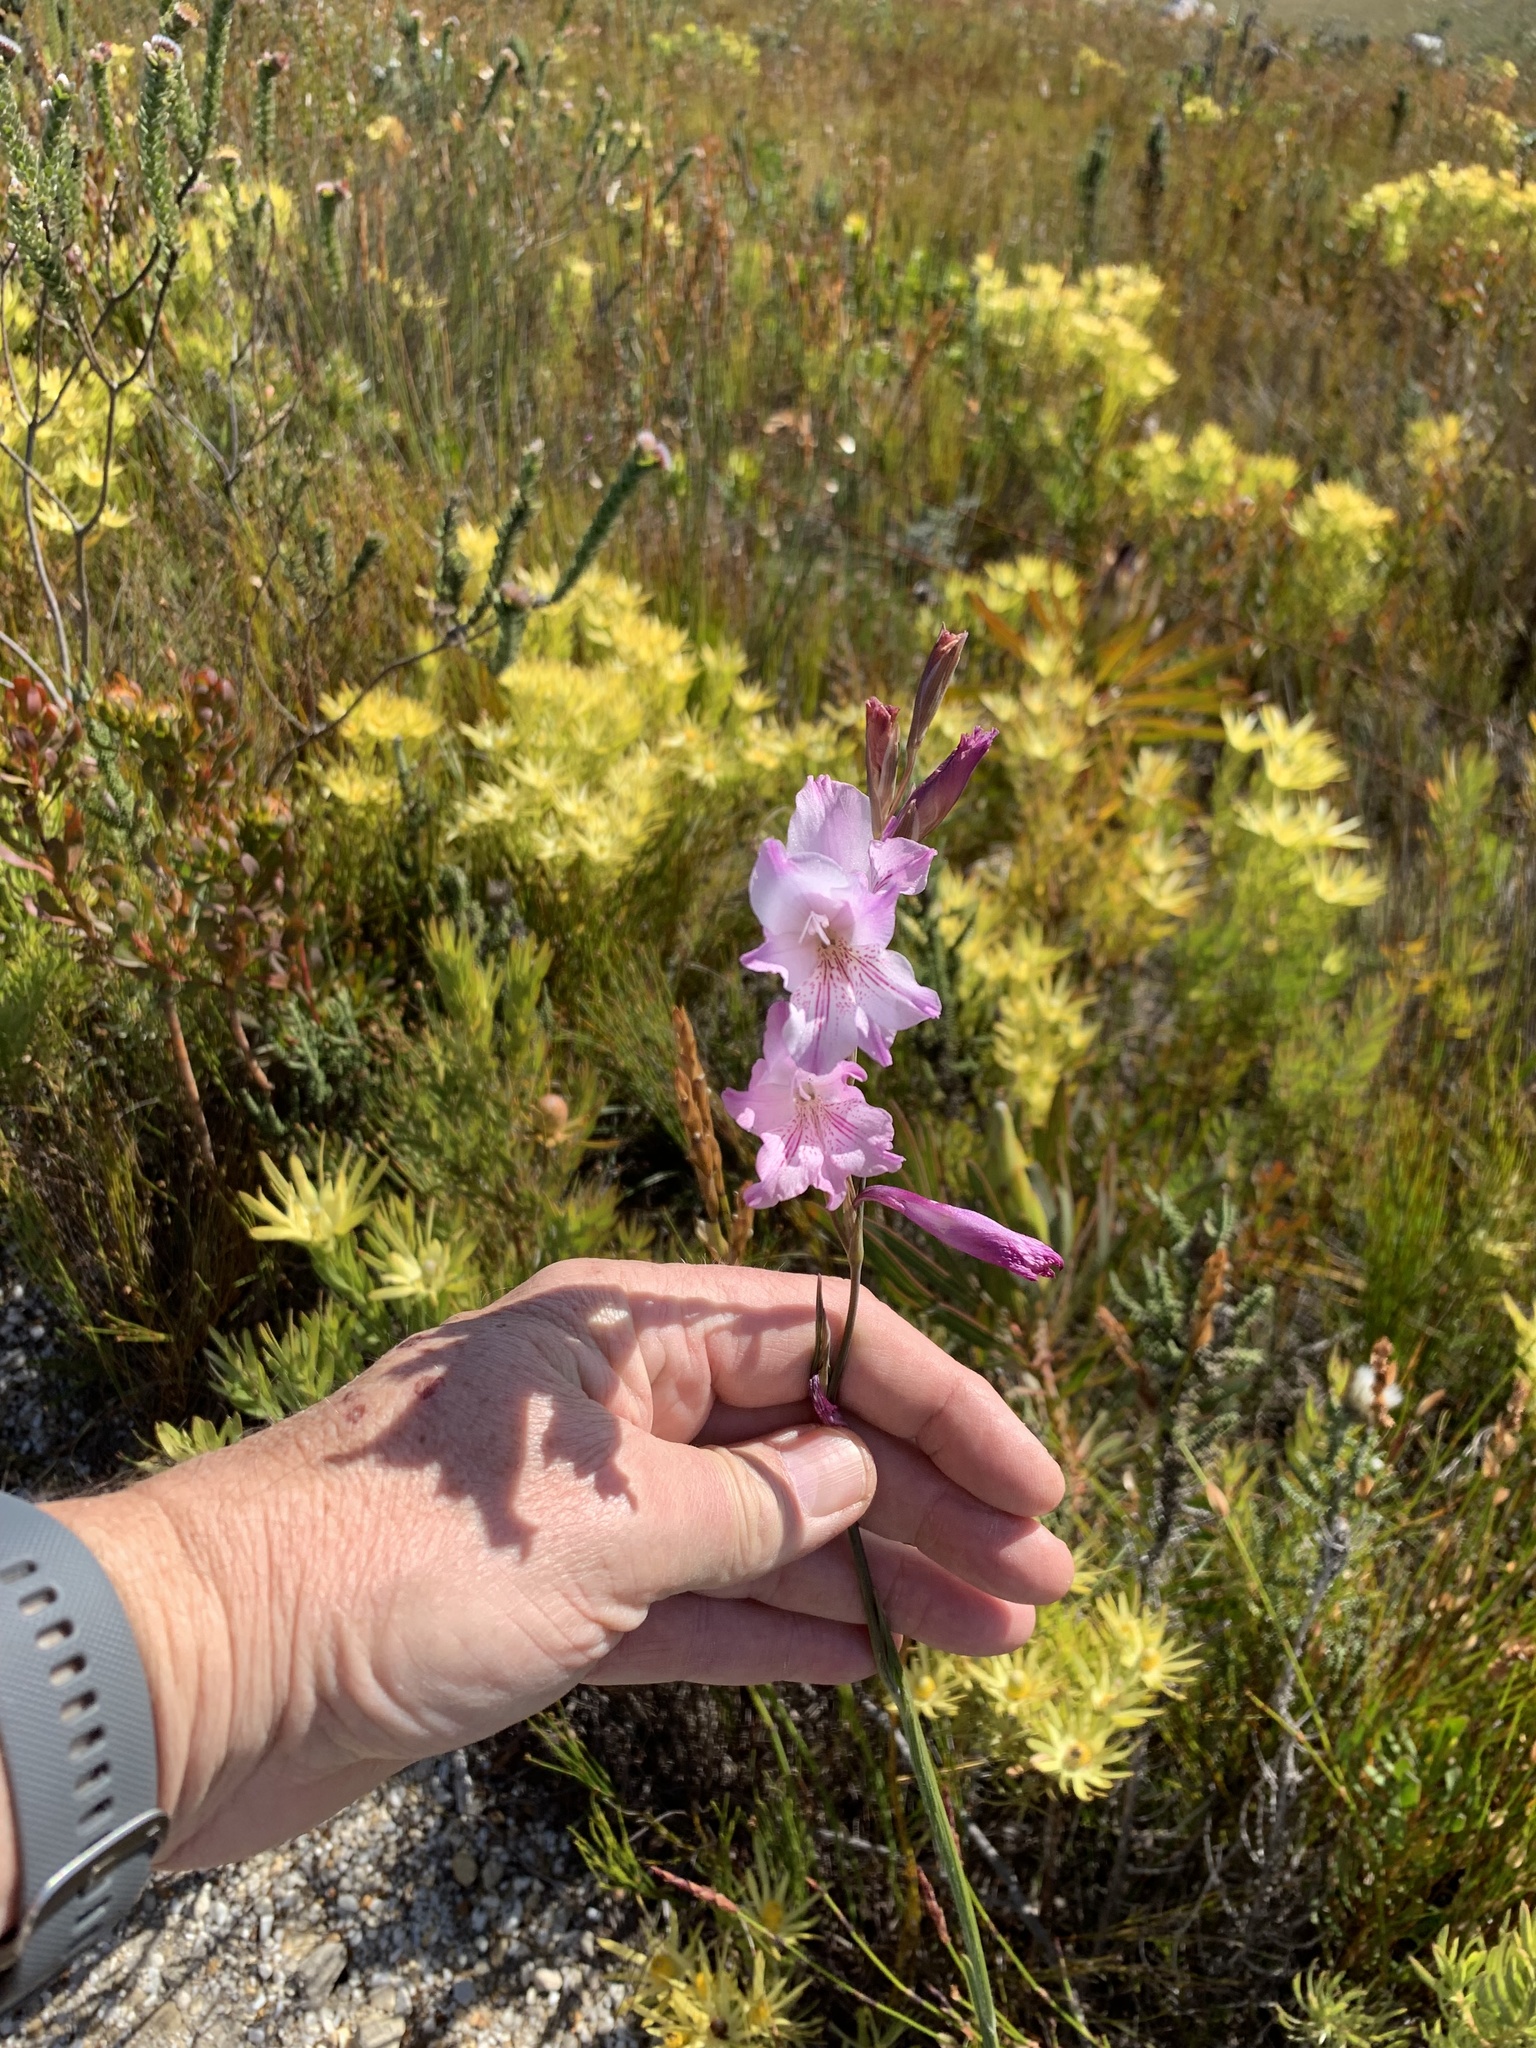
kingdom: Plantae
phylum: Tracheophyta
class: Liliopsida
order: Asparagales
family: Iridaceae
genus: Gladiolus
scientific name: Gladiolus hirsutus
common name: Small pink afrikaner
